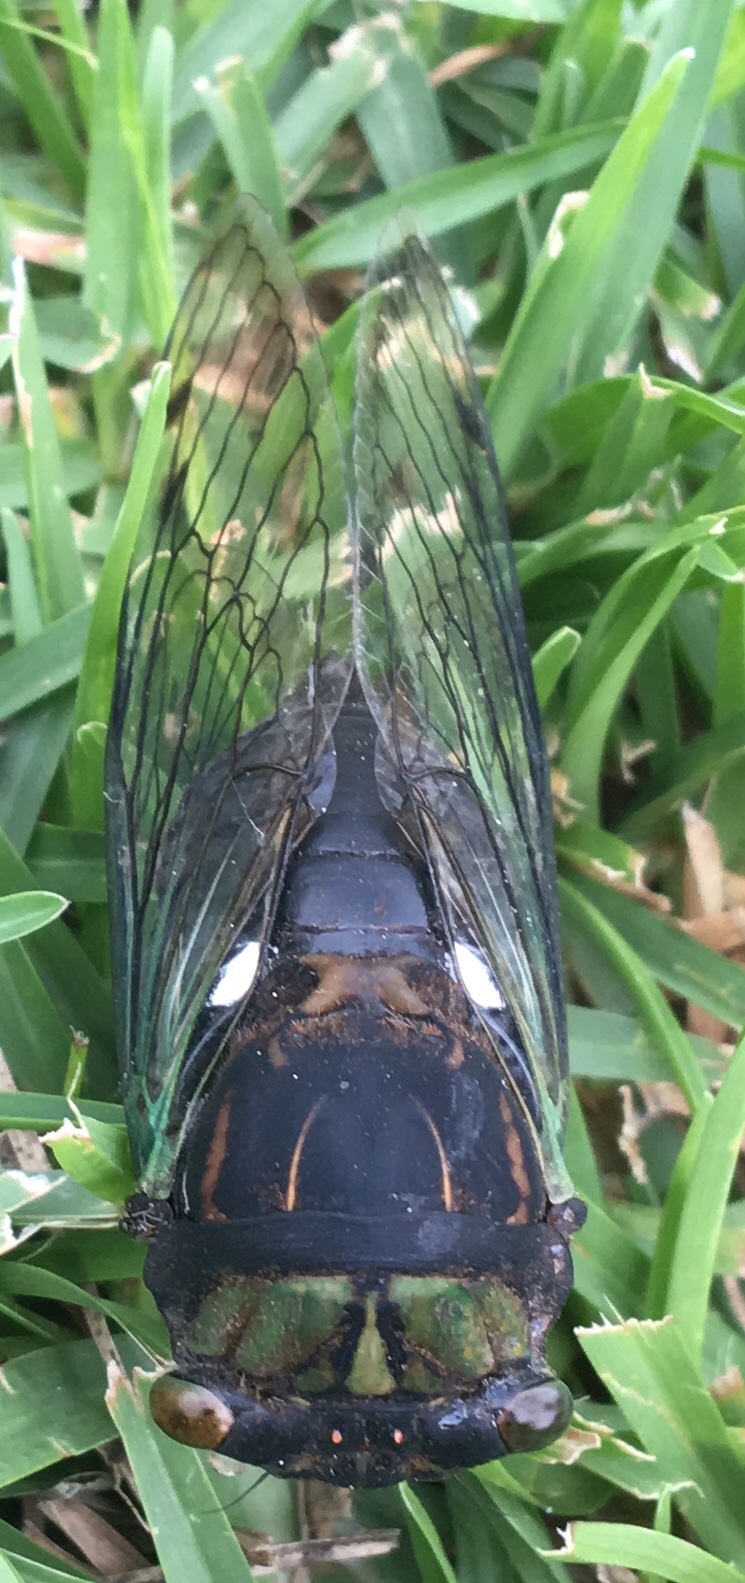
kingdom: Animalia
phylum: Arthropoda
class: Insecta
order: Hemiptera
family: Cicadidae
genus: Neotibicen
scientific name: Neotibicen tibicen
